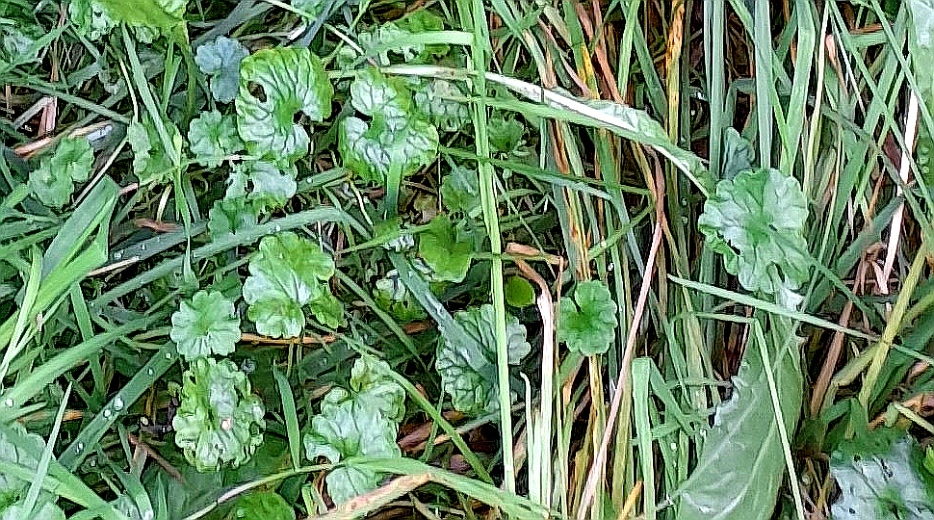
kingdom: Plantae
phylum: Tracheophyta
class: Magnoliopsida
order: Lamiales
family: Lamiaceae
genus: Glechoma
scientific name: Glechoma hederacea
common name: Ground ivy
